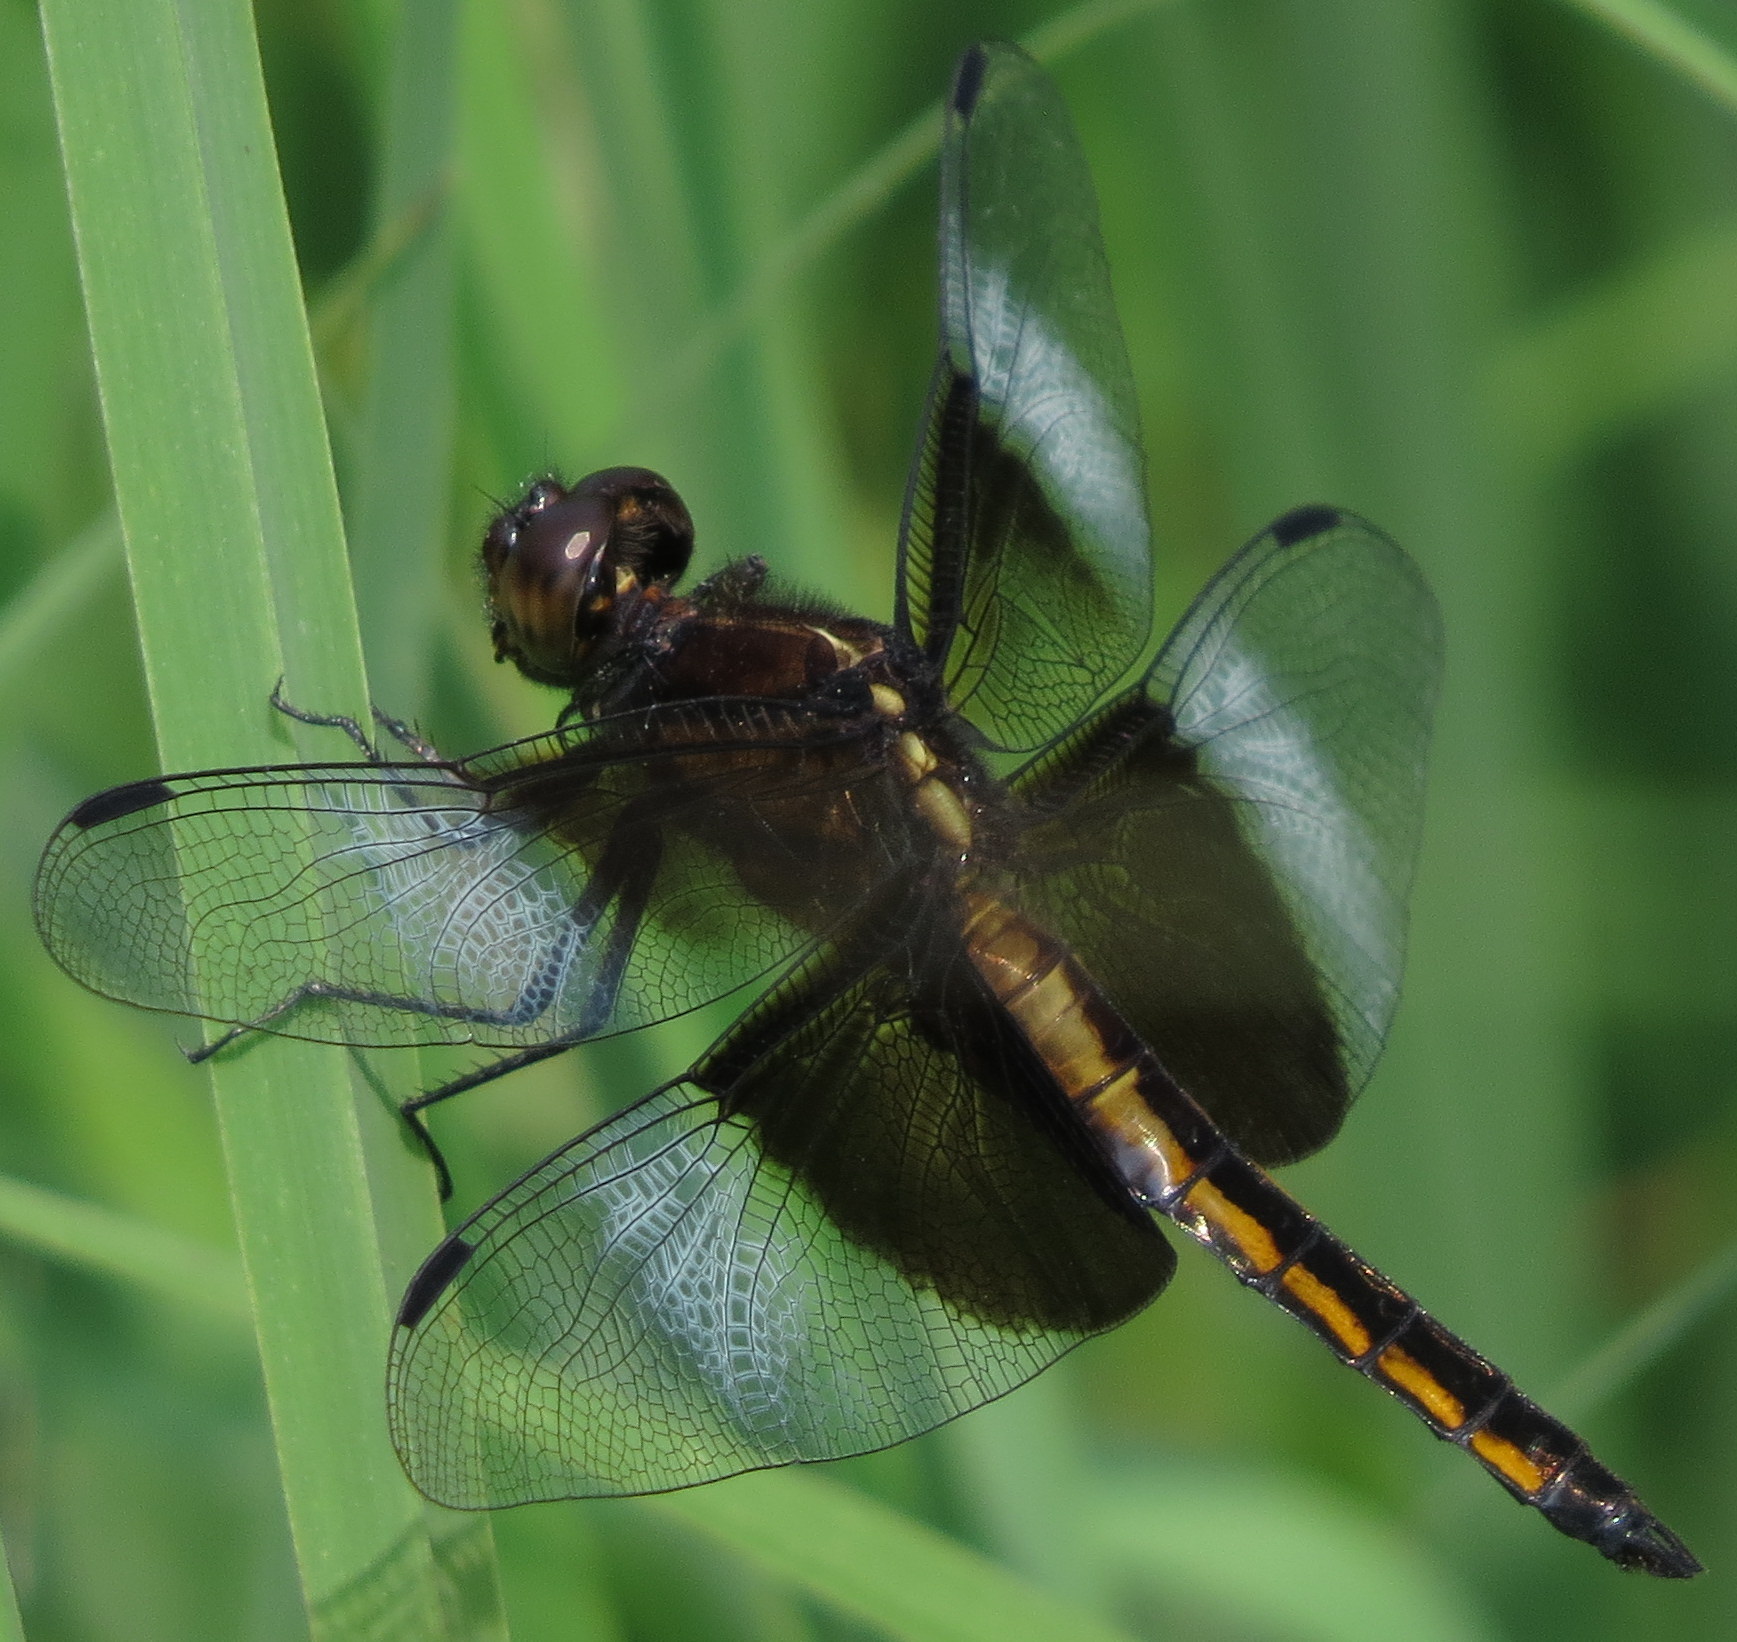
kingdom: Animalia
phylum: Arthropoda
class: Insecta
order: Odonata
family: Libellulidae
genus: Libellula
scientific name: Libellula luctuosa
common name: Widow skimmer
